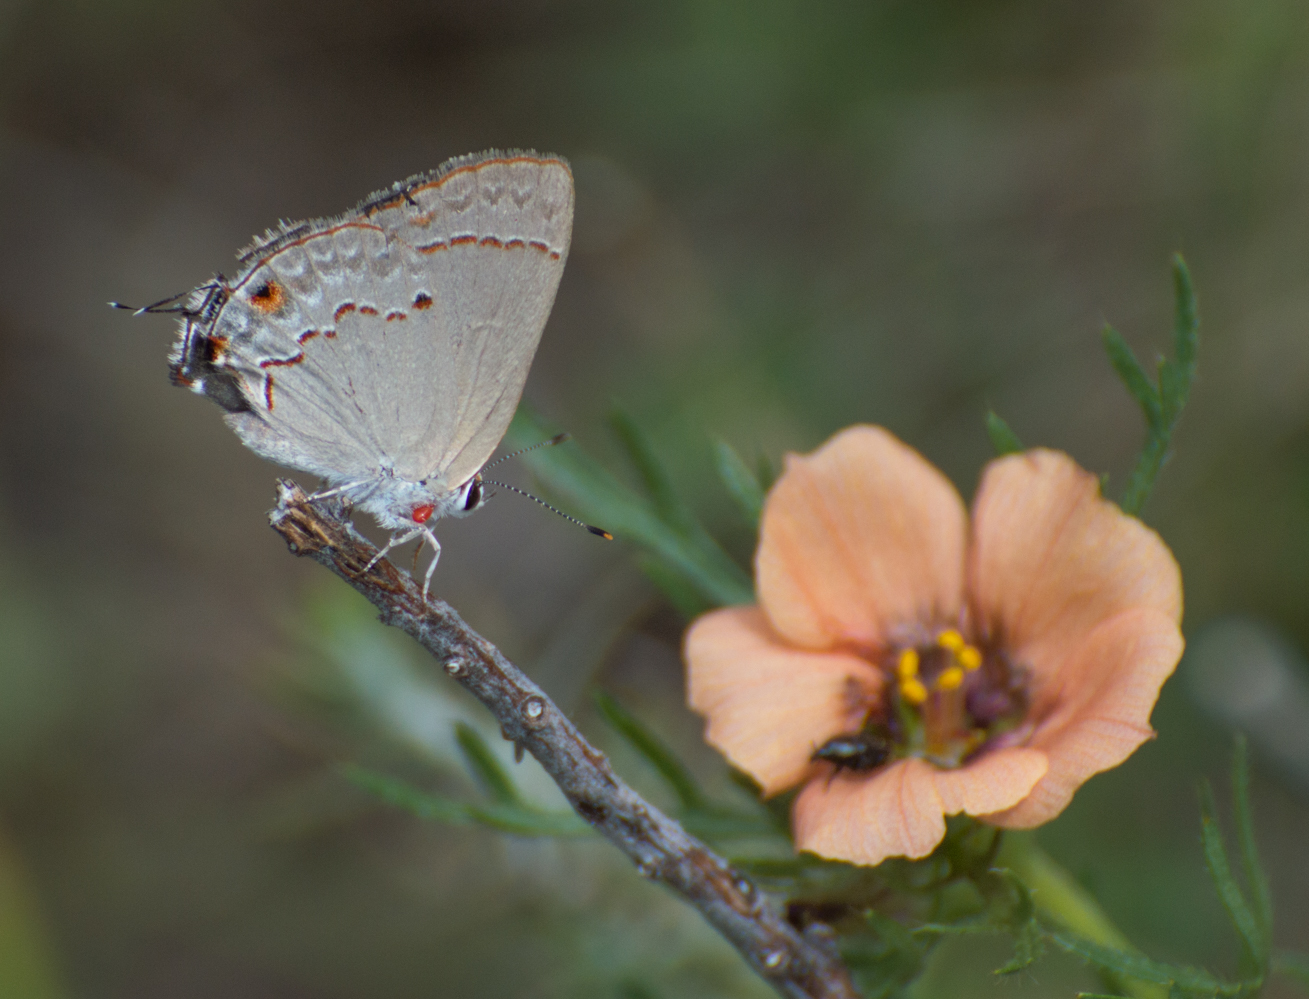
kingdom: Animalia
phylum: Arthropoda
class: Insecta
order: Lepidoptera
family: Lycaenidae
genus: Thecla
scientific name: Thecla rufofusca
